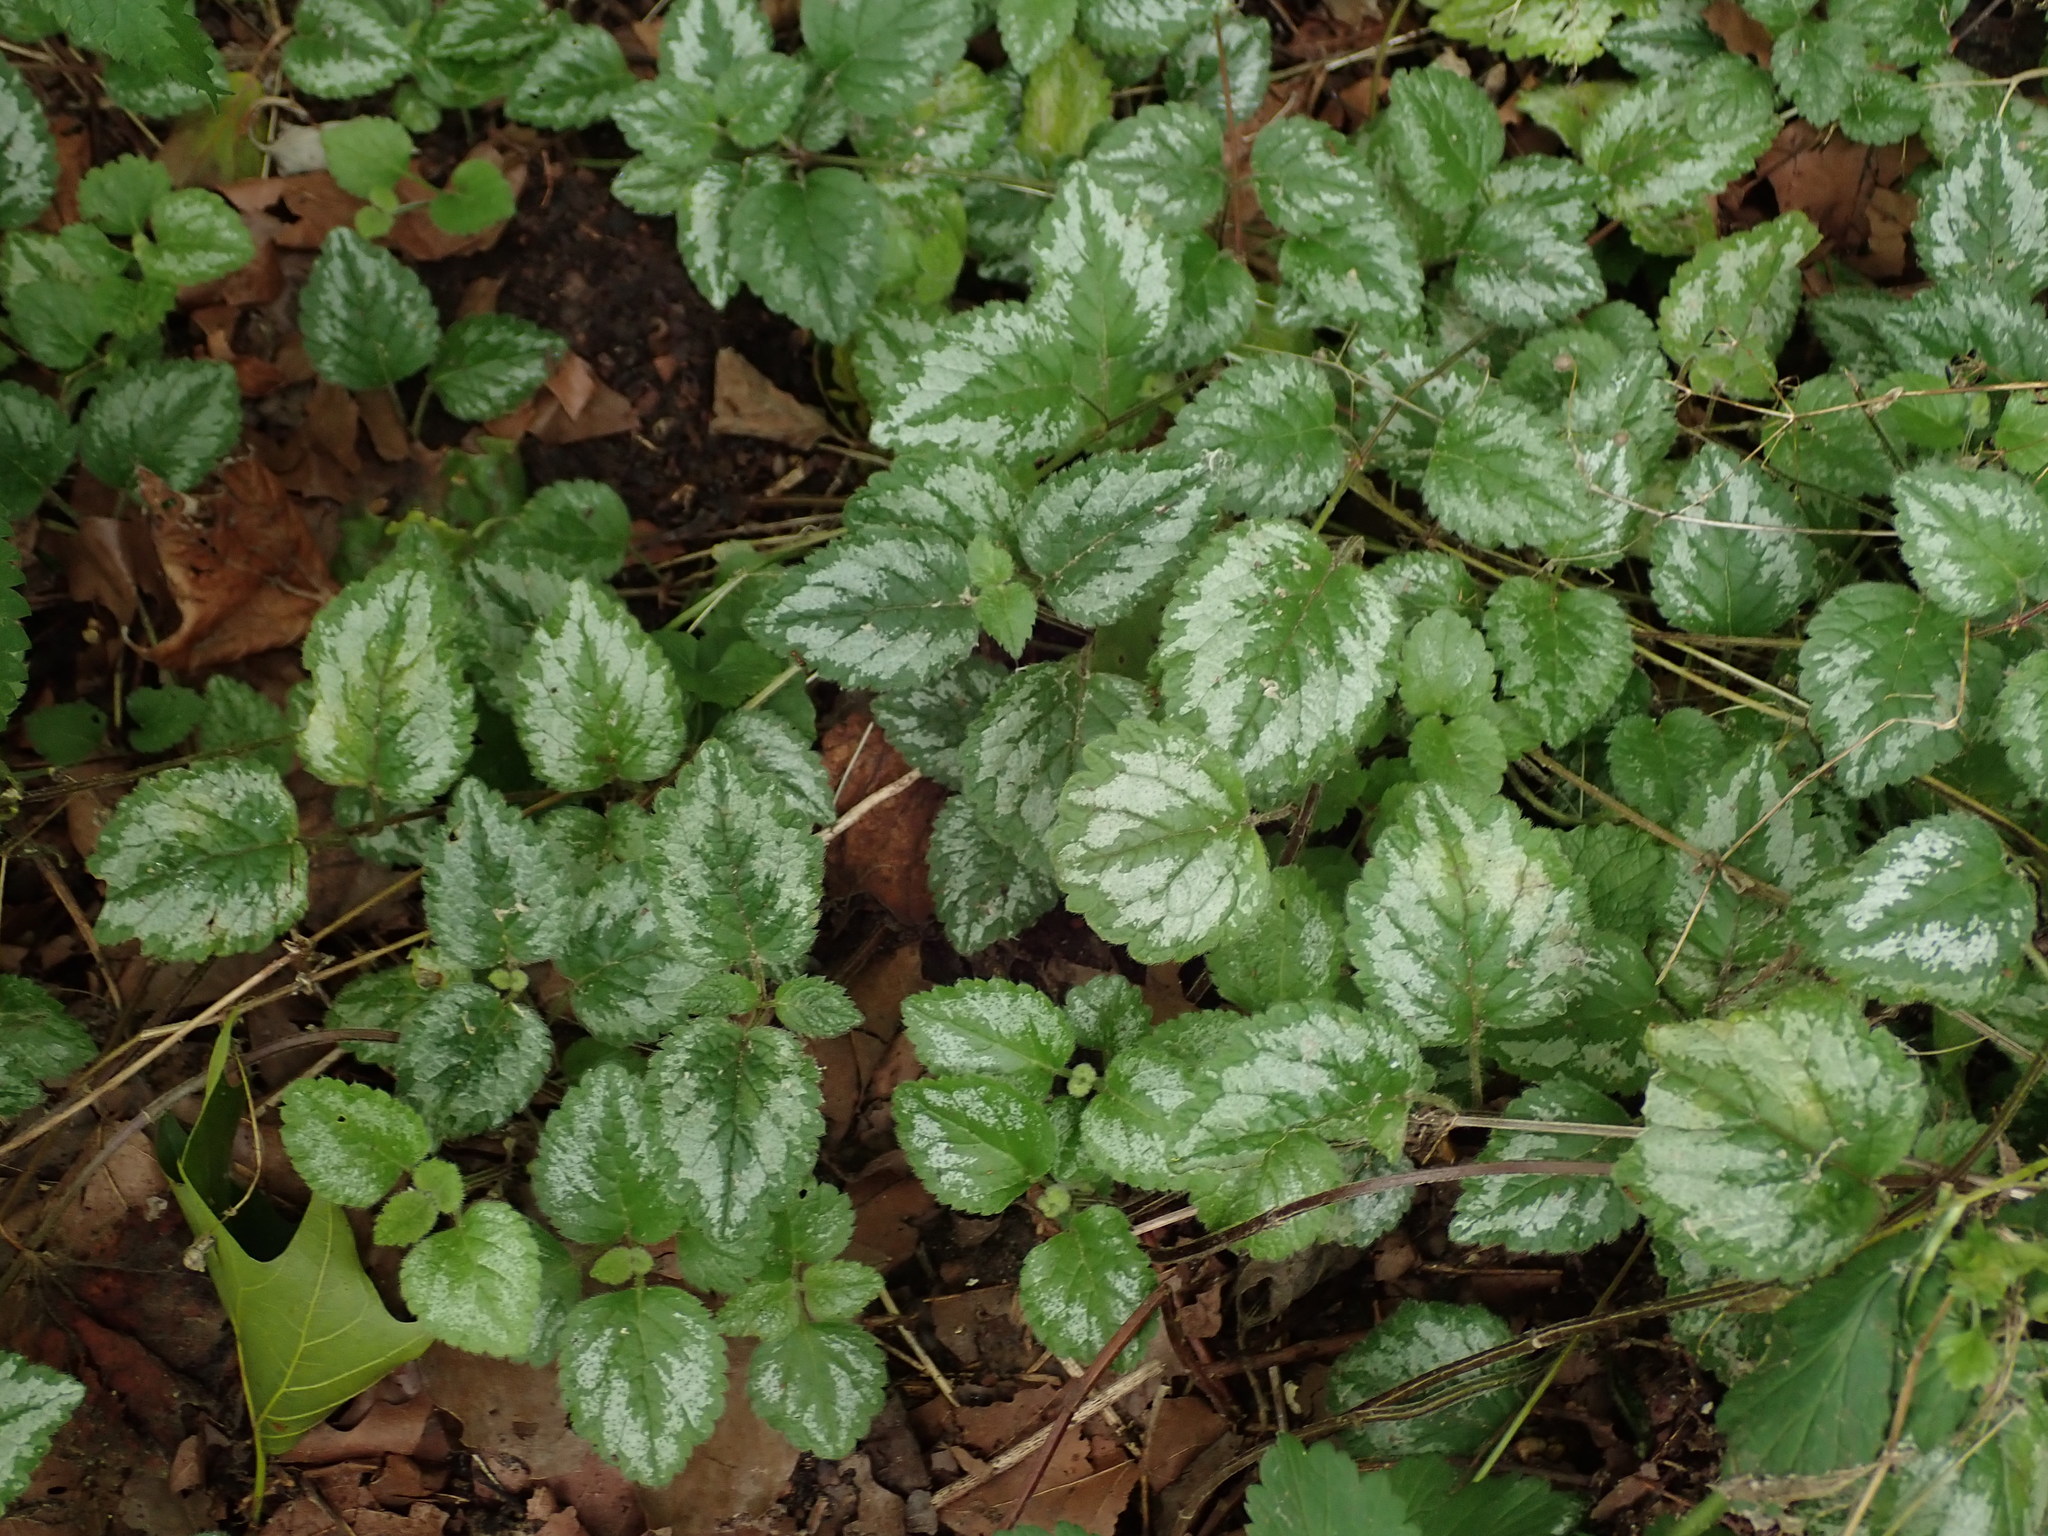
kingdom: Plantae
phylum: Tracheophyta
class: Magnoliopsida
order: Lamiales
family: Lamiaceae
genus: Lamium
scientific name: Lamium galeobdolon
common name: Yellow archangel
